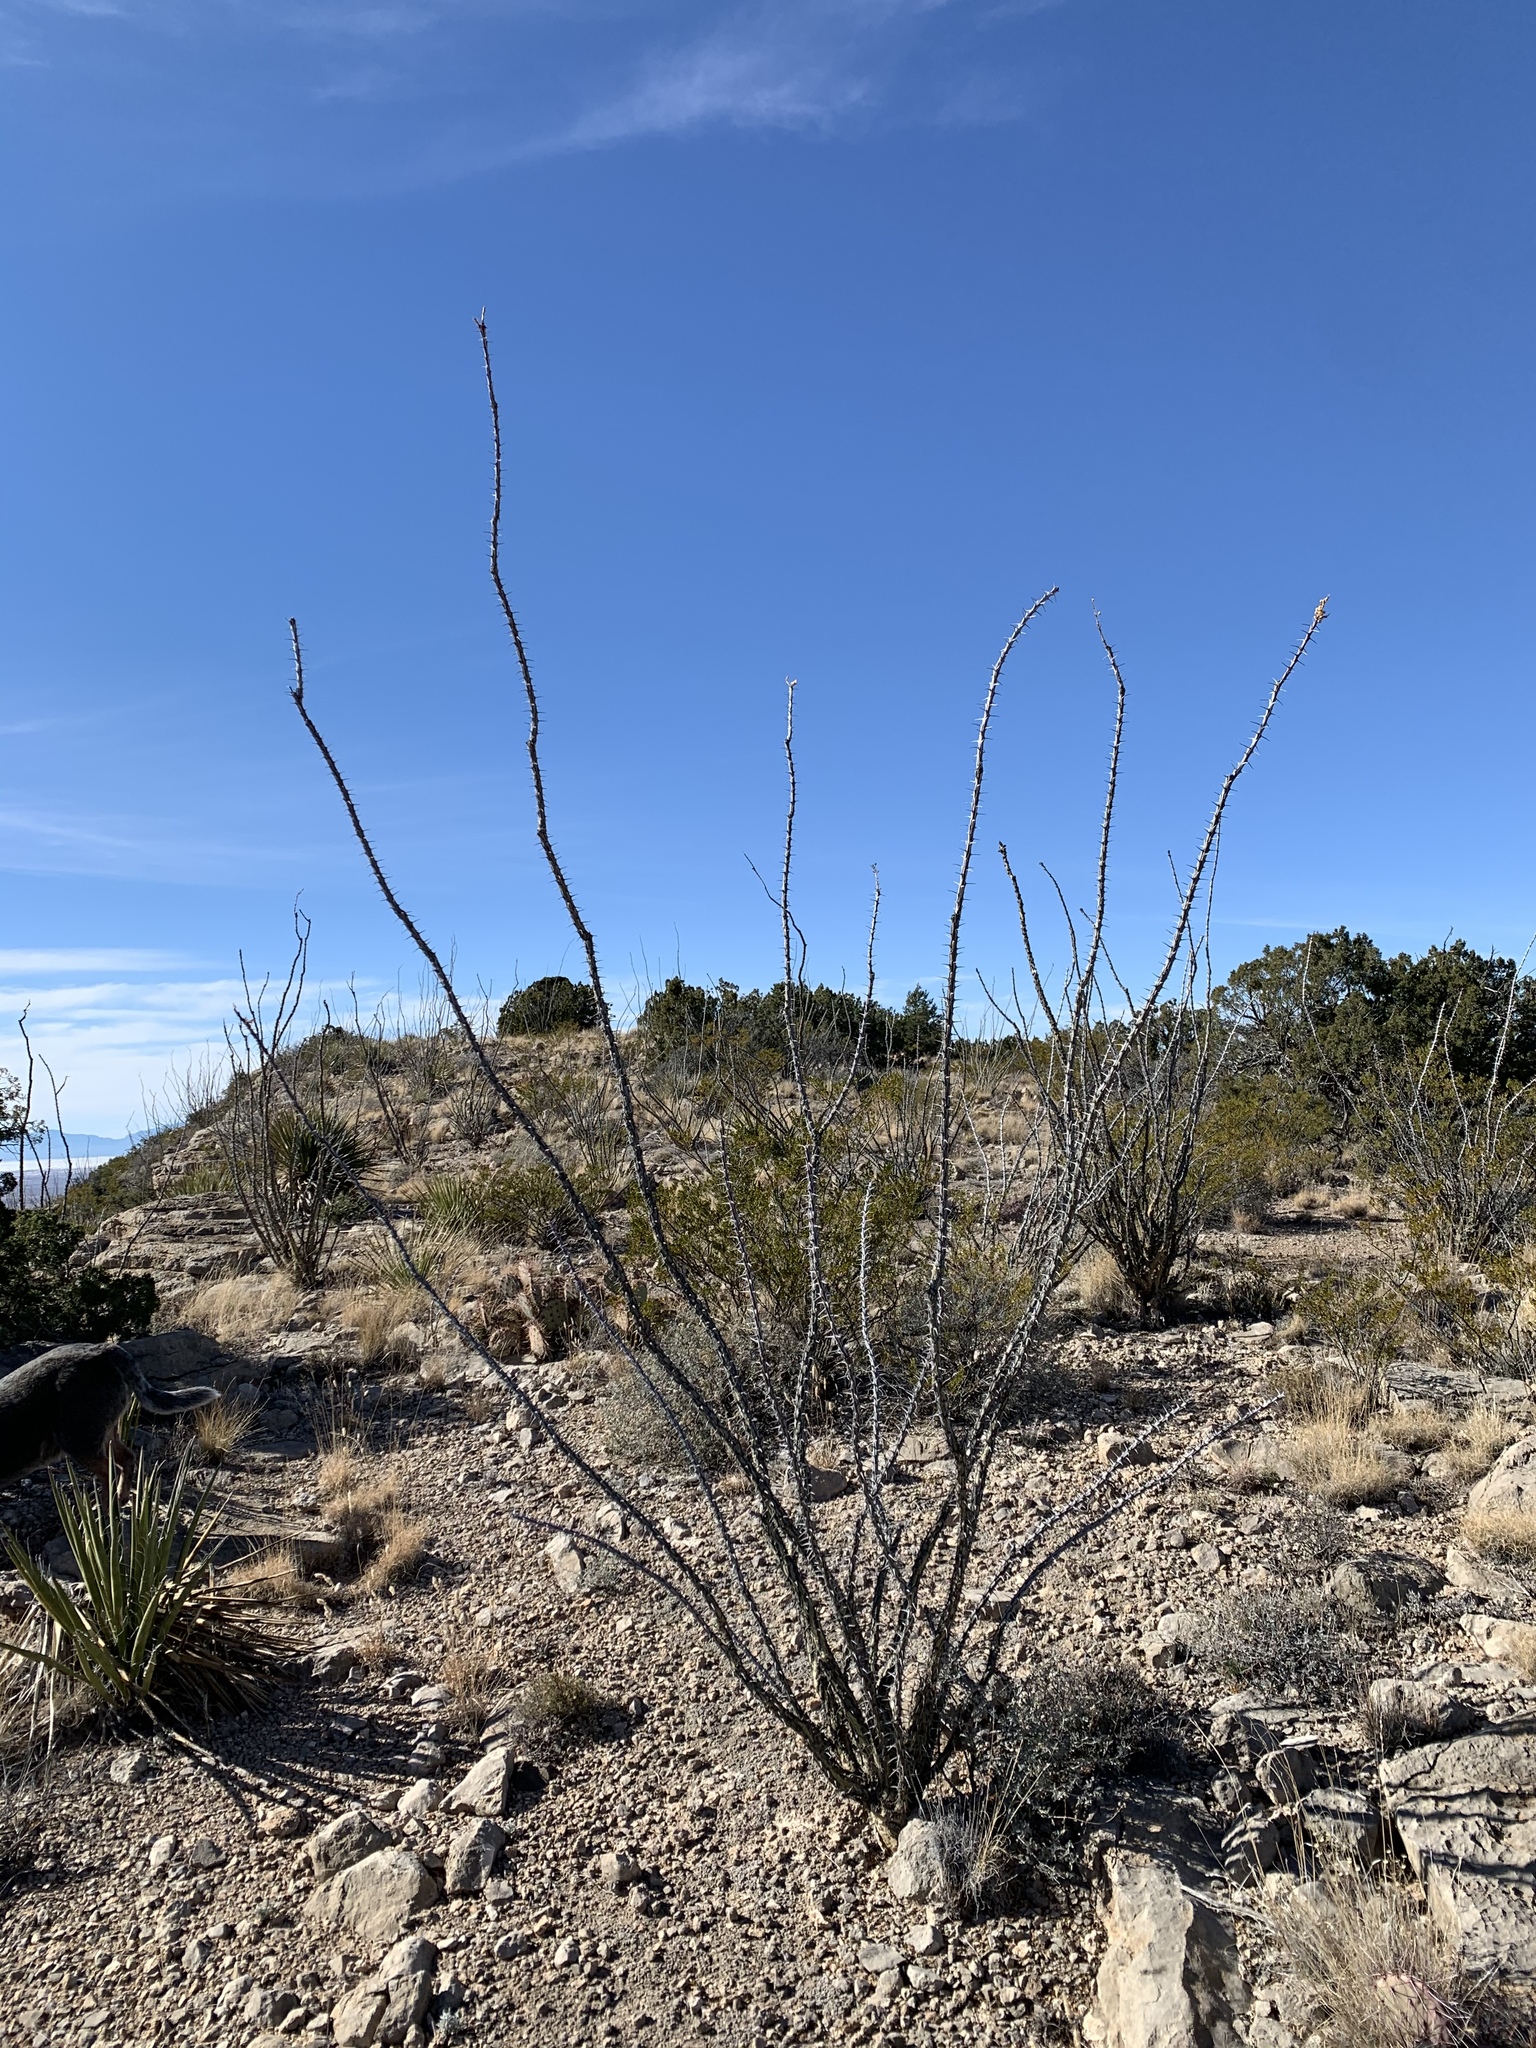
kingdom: Plantae
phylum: Tracheophyta
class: Magnoliopsida
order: Ericales
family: Fouquieriaceae
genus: Fouquieria
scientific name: Fouquieria splendens
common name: Vine-cactus
